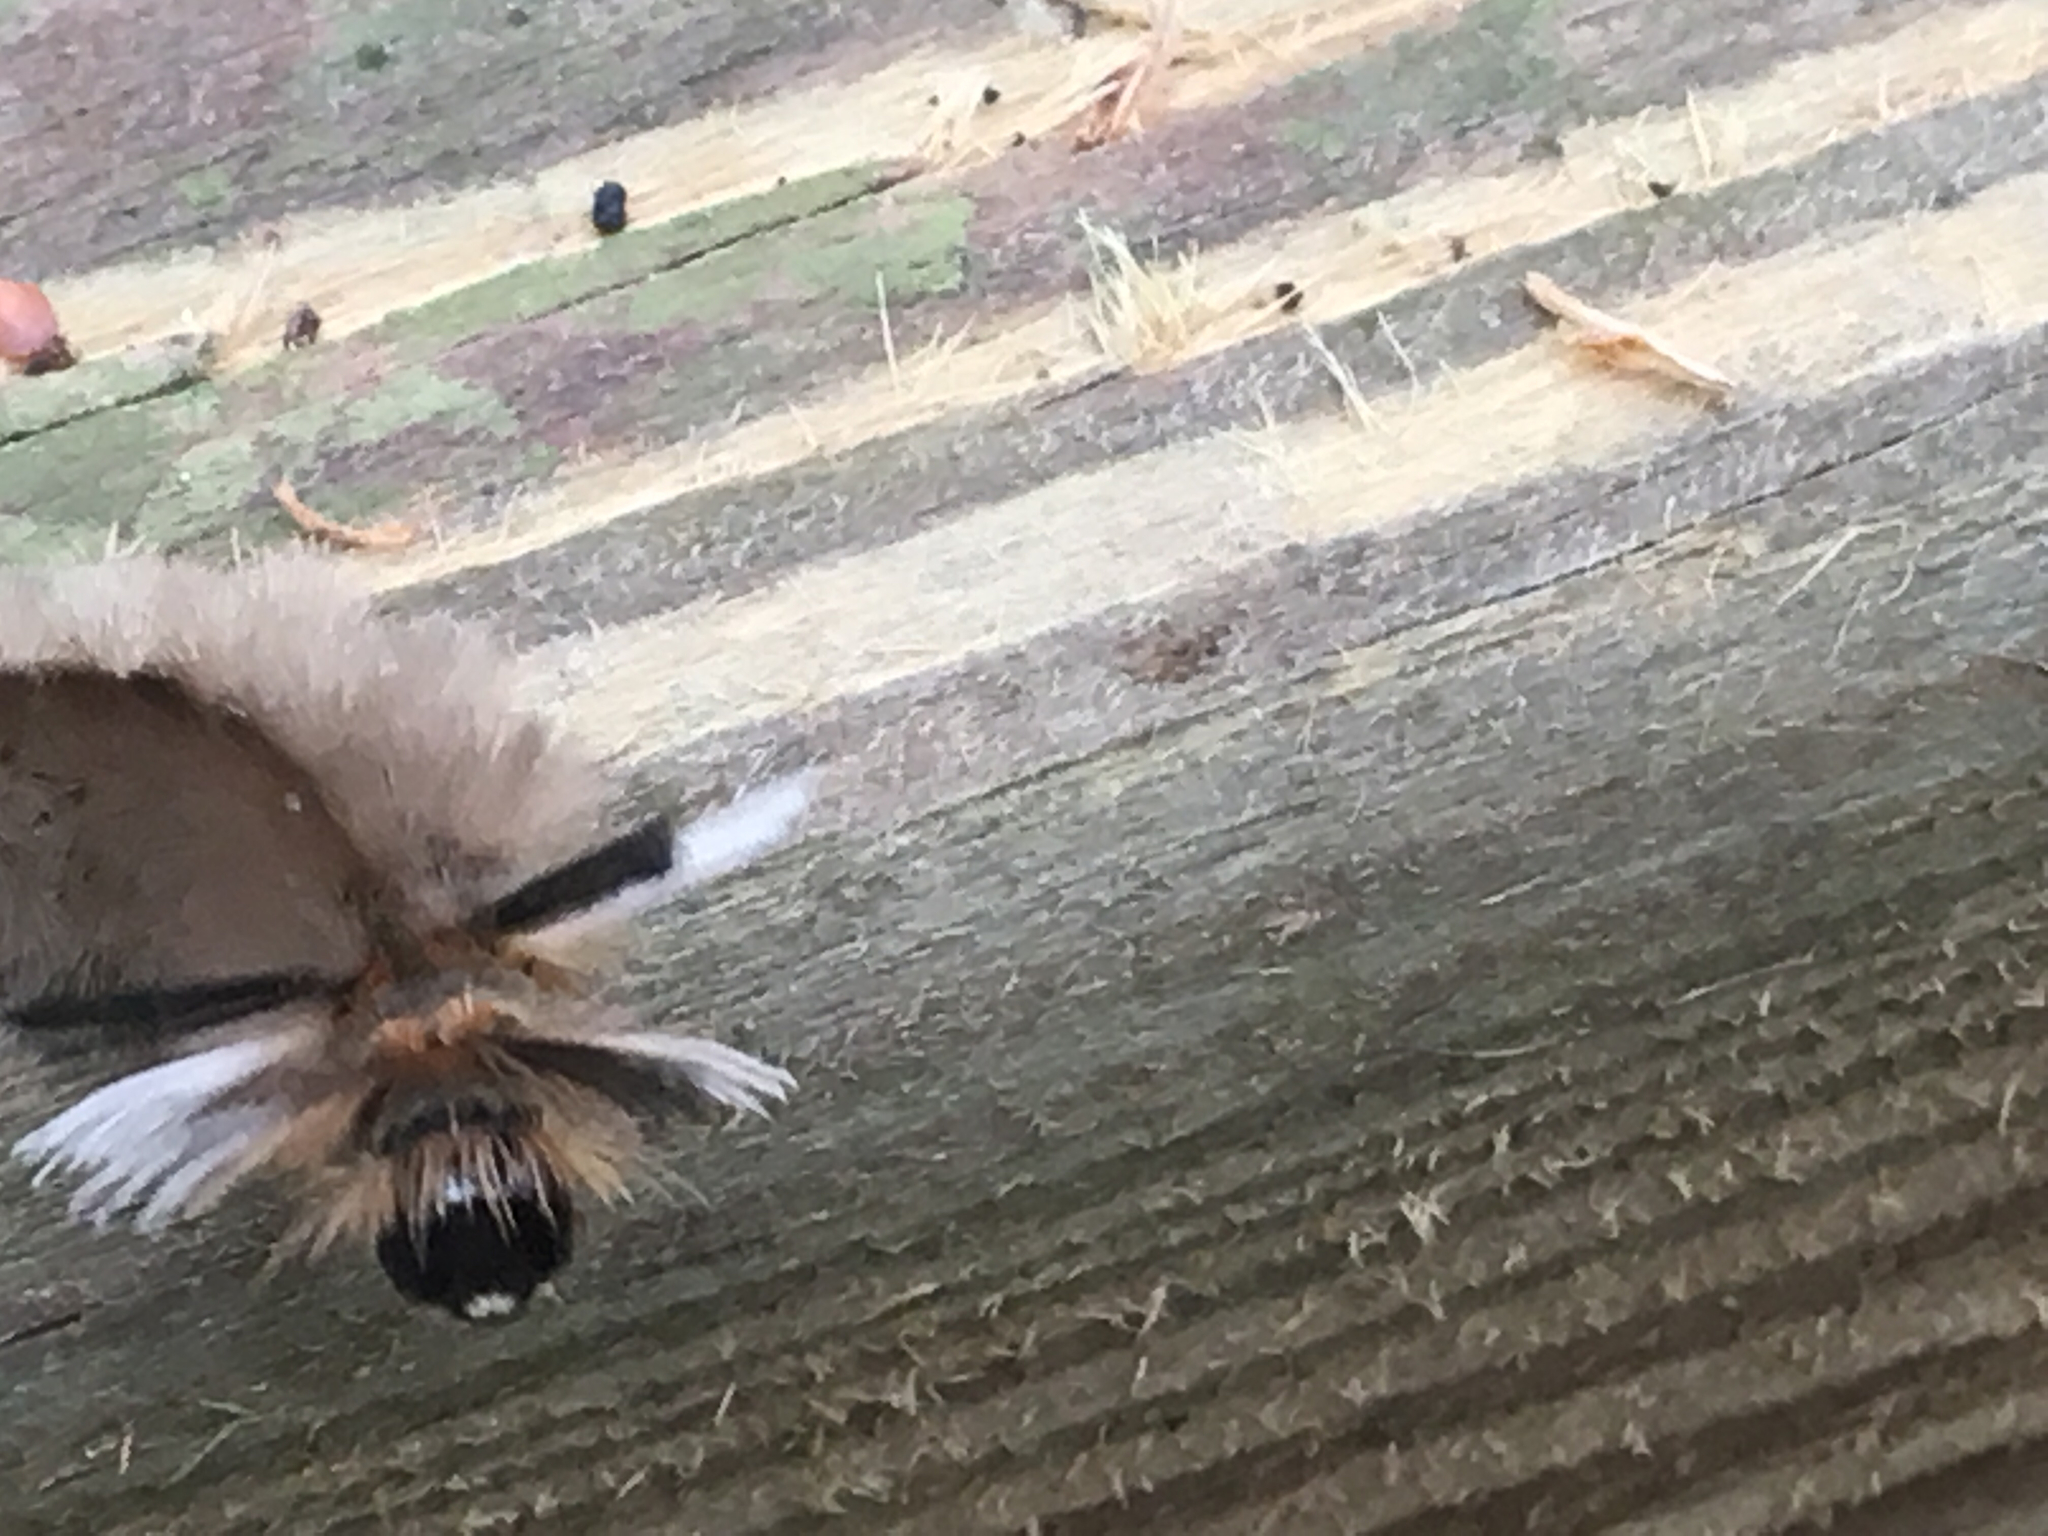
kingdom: Animalia
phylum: Arthropoda
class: Insecta
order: Lepidoptera
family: Erebidae
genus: Halysidota
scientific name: Halysidota tessellaris
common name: Banded tussock moth
